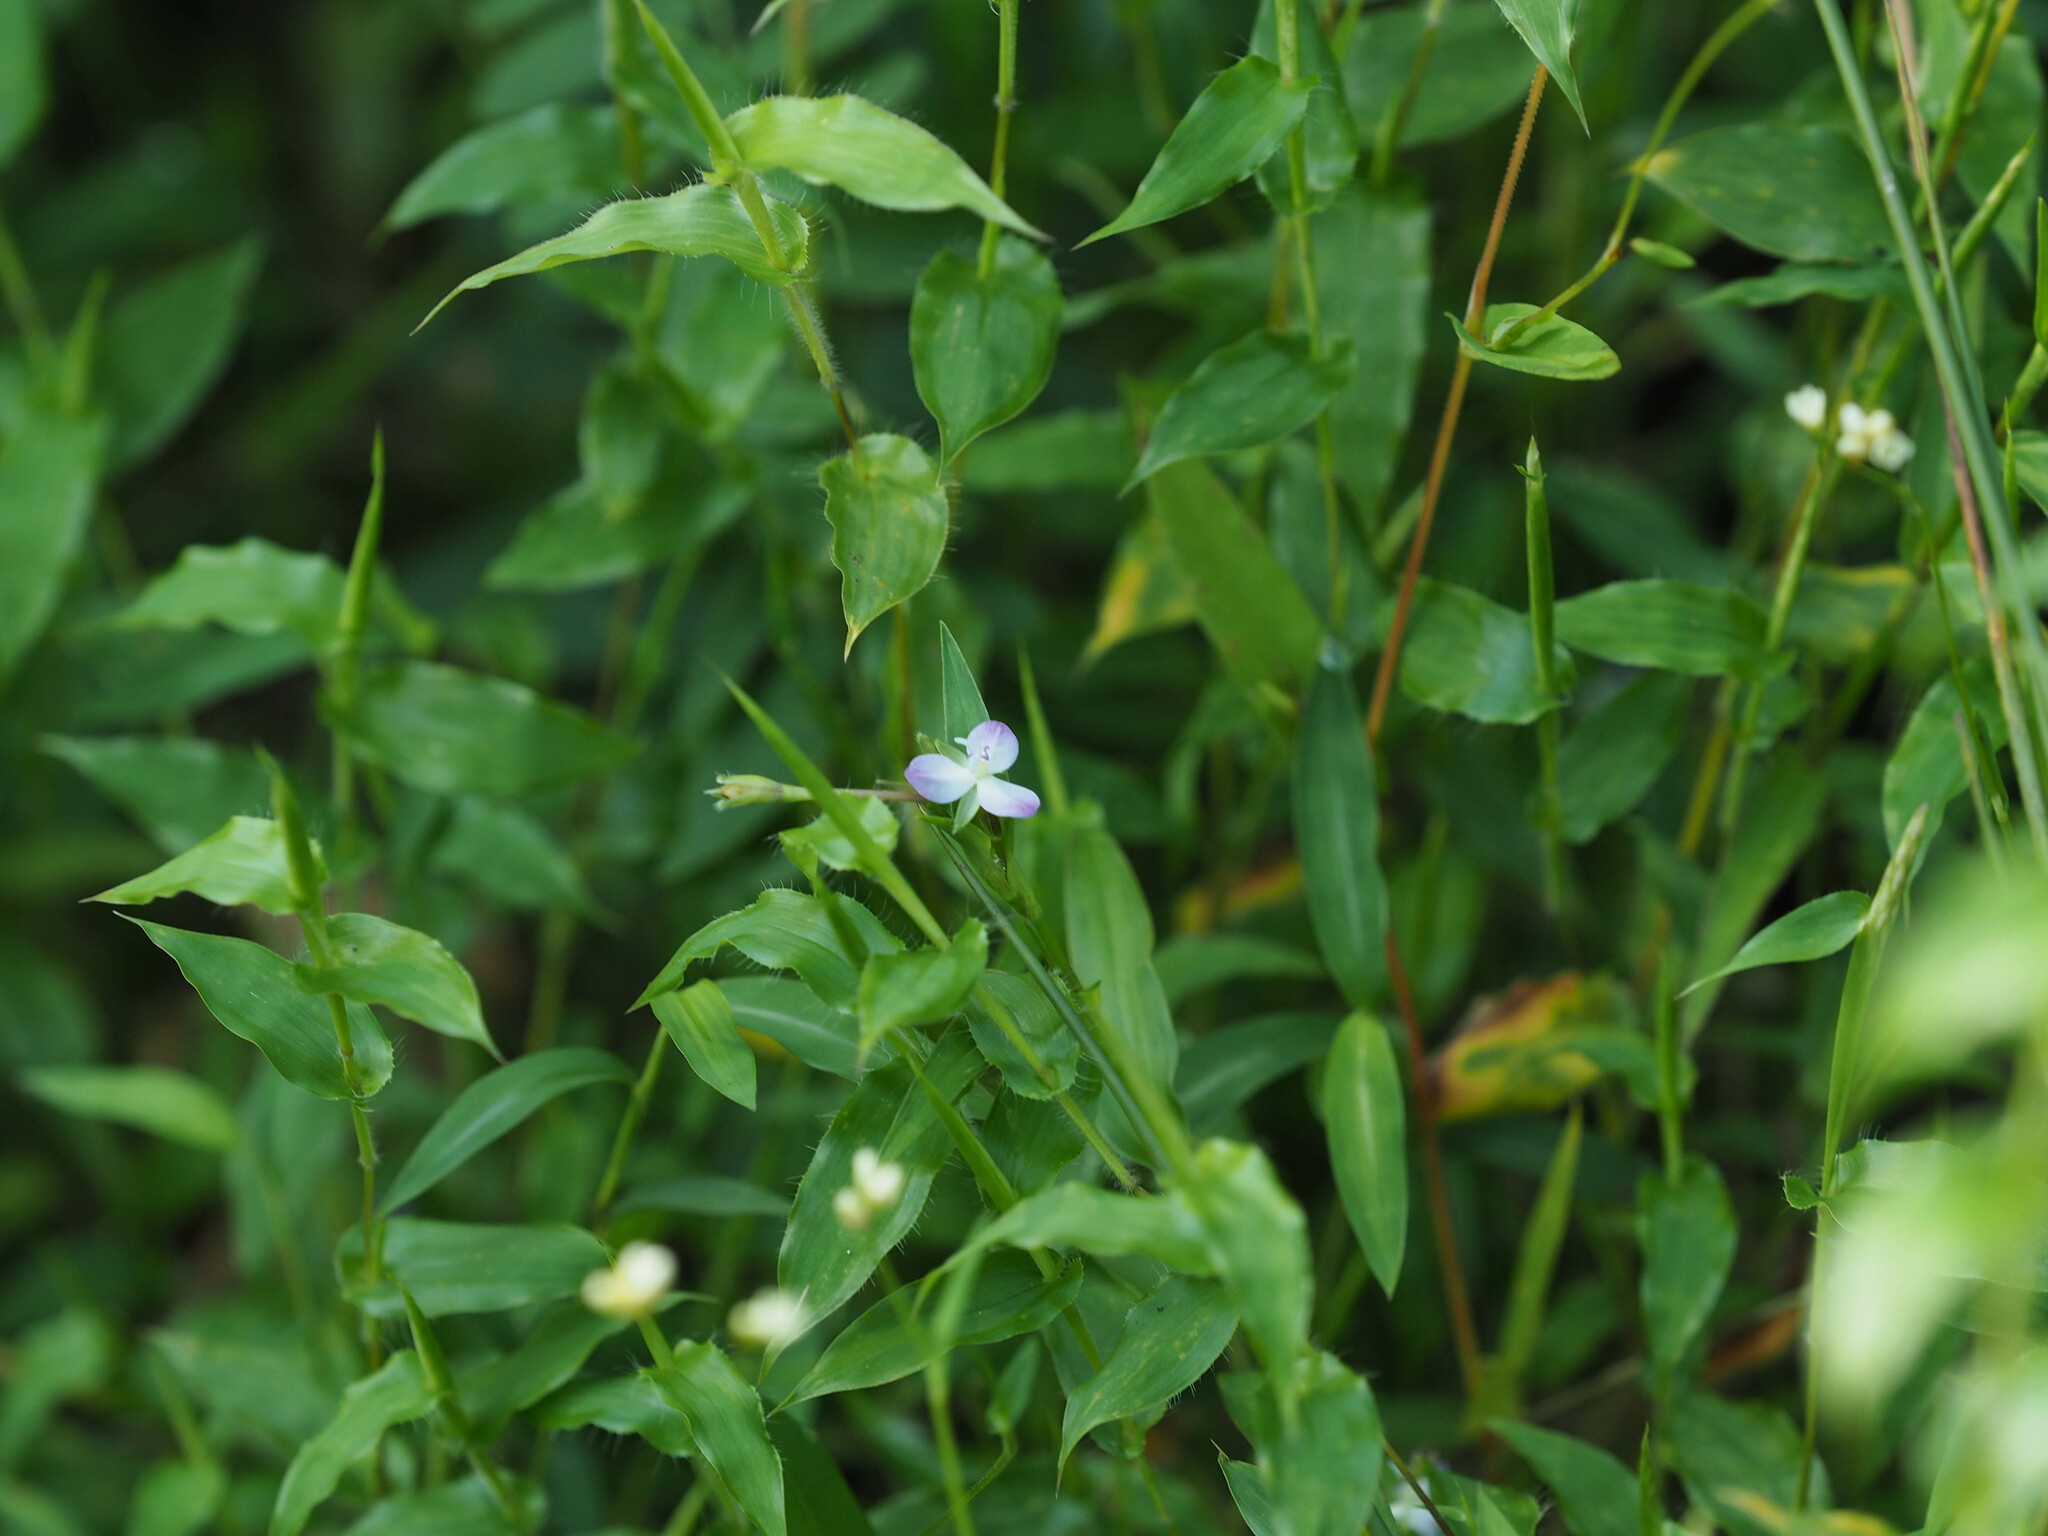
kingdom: Plantae
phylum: Tracheophyta
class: Liliopsida
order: Commelinales
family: Commelinaceae
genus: Murdannia
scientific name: Murdannia keisak
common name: Wartremoving herb
